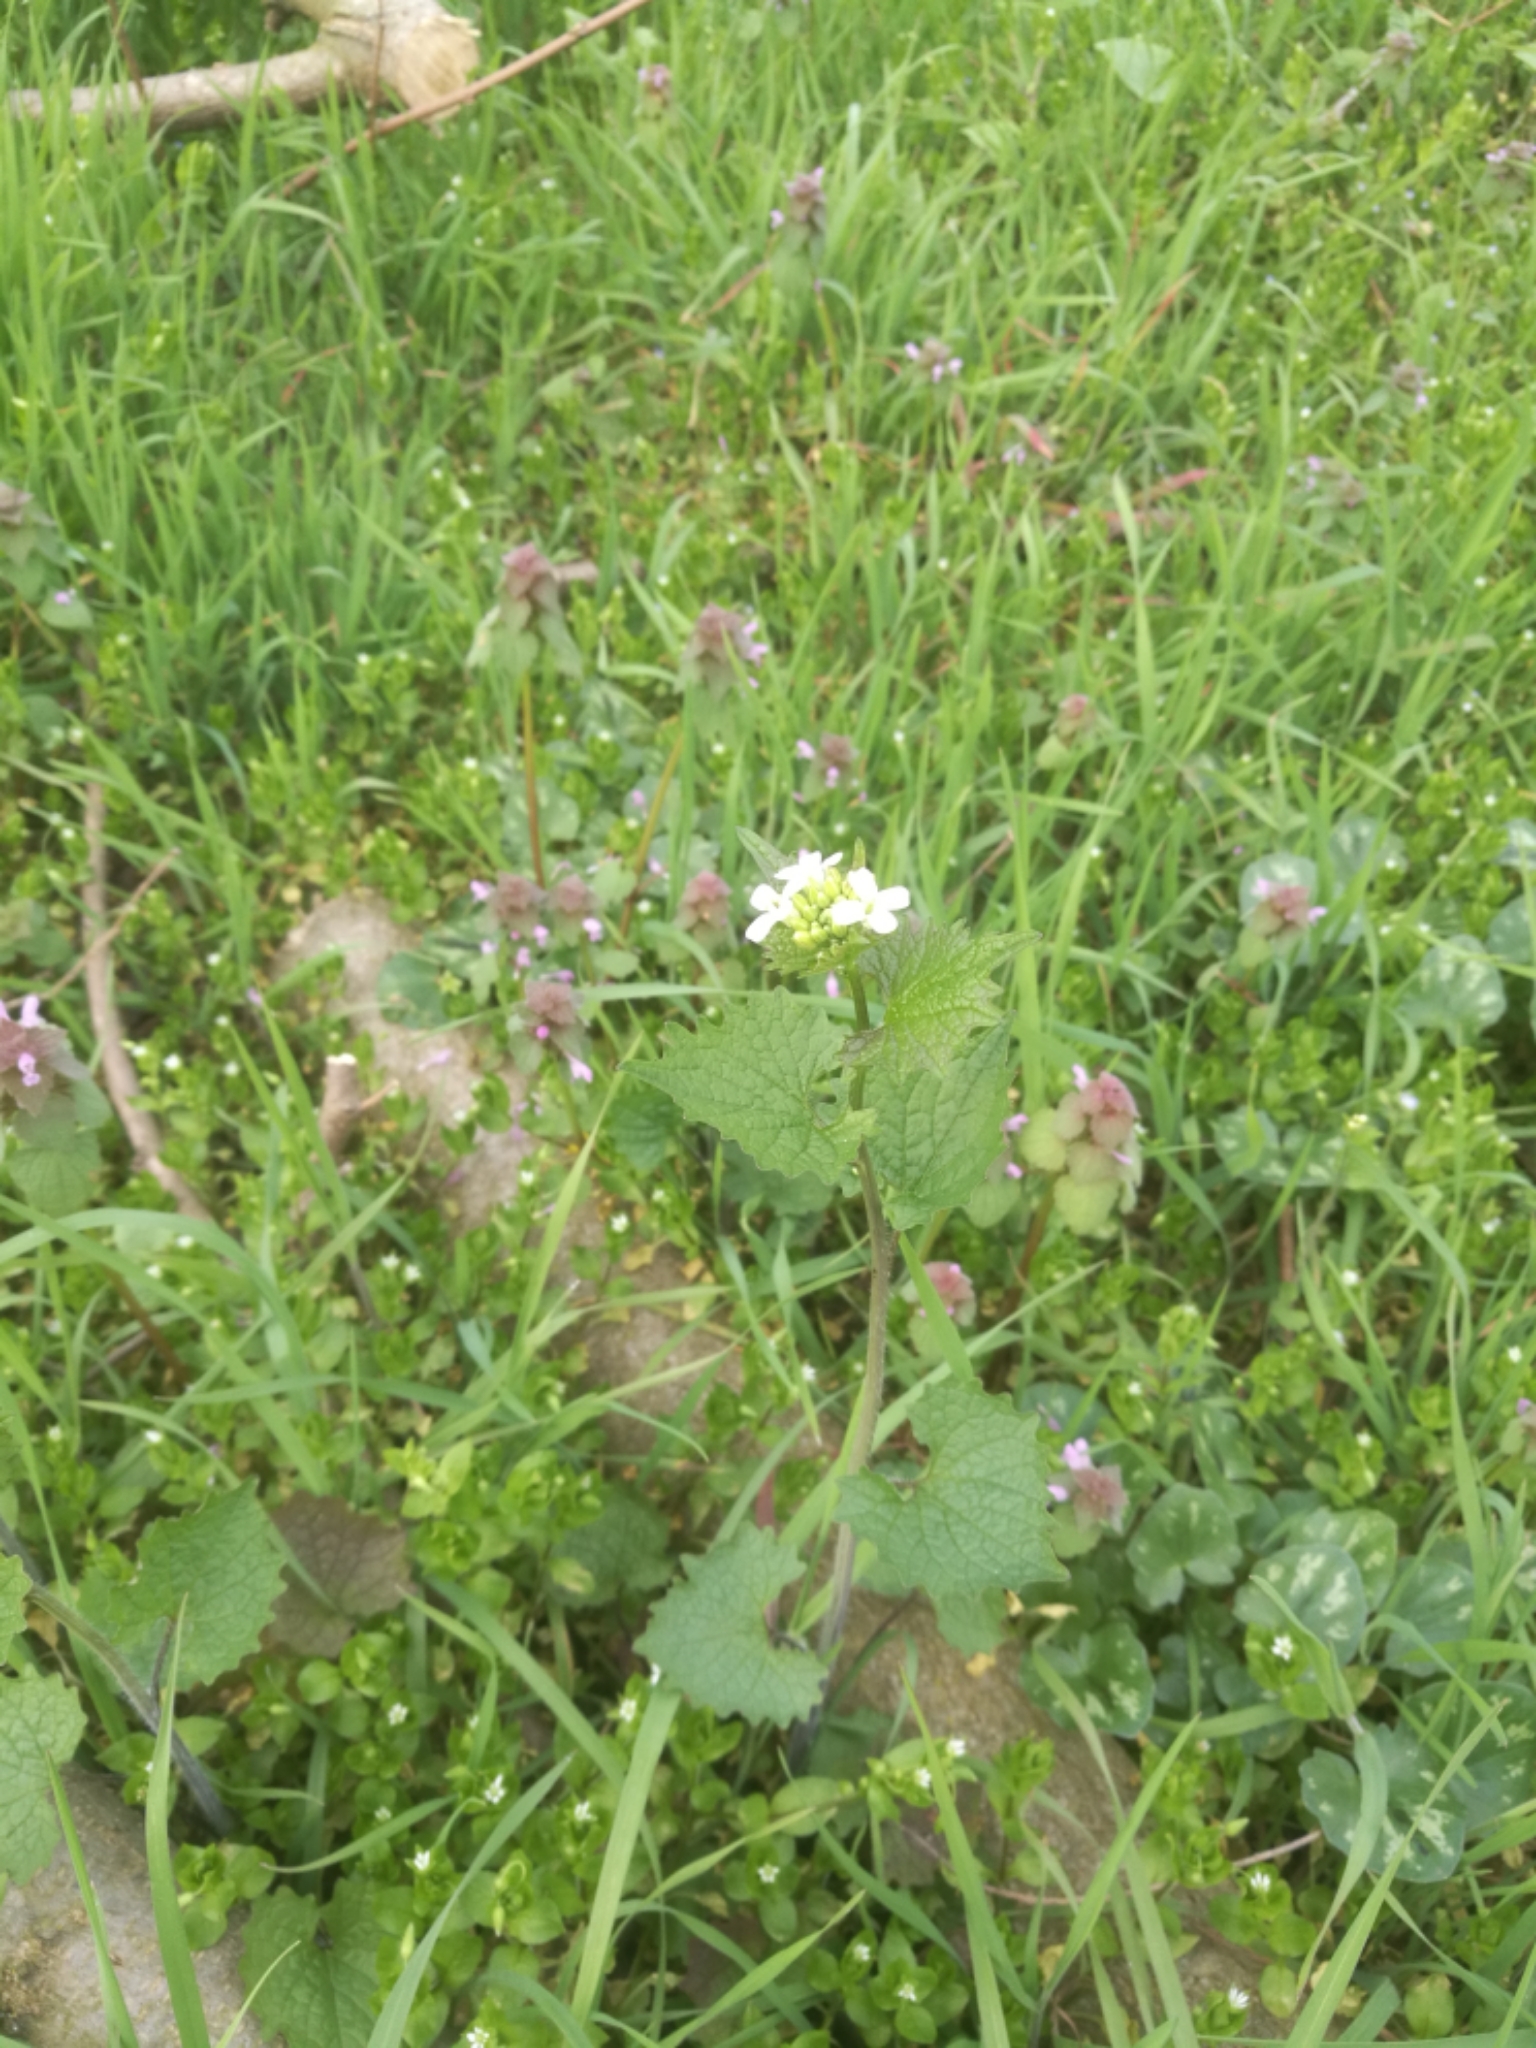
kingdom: Plantae
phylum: Tracheophyta
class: Magnoliopsida
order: Brassicales
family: Brassicaceae
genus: Alliaria
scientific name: Alliaria petiolata
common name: Garlic mustard
